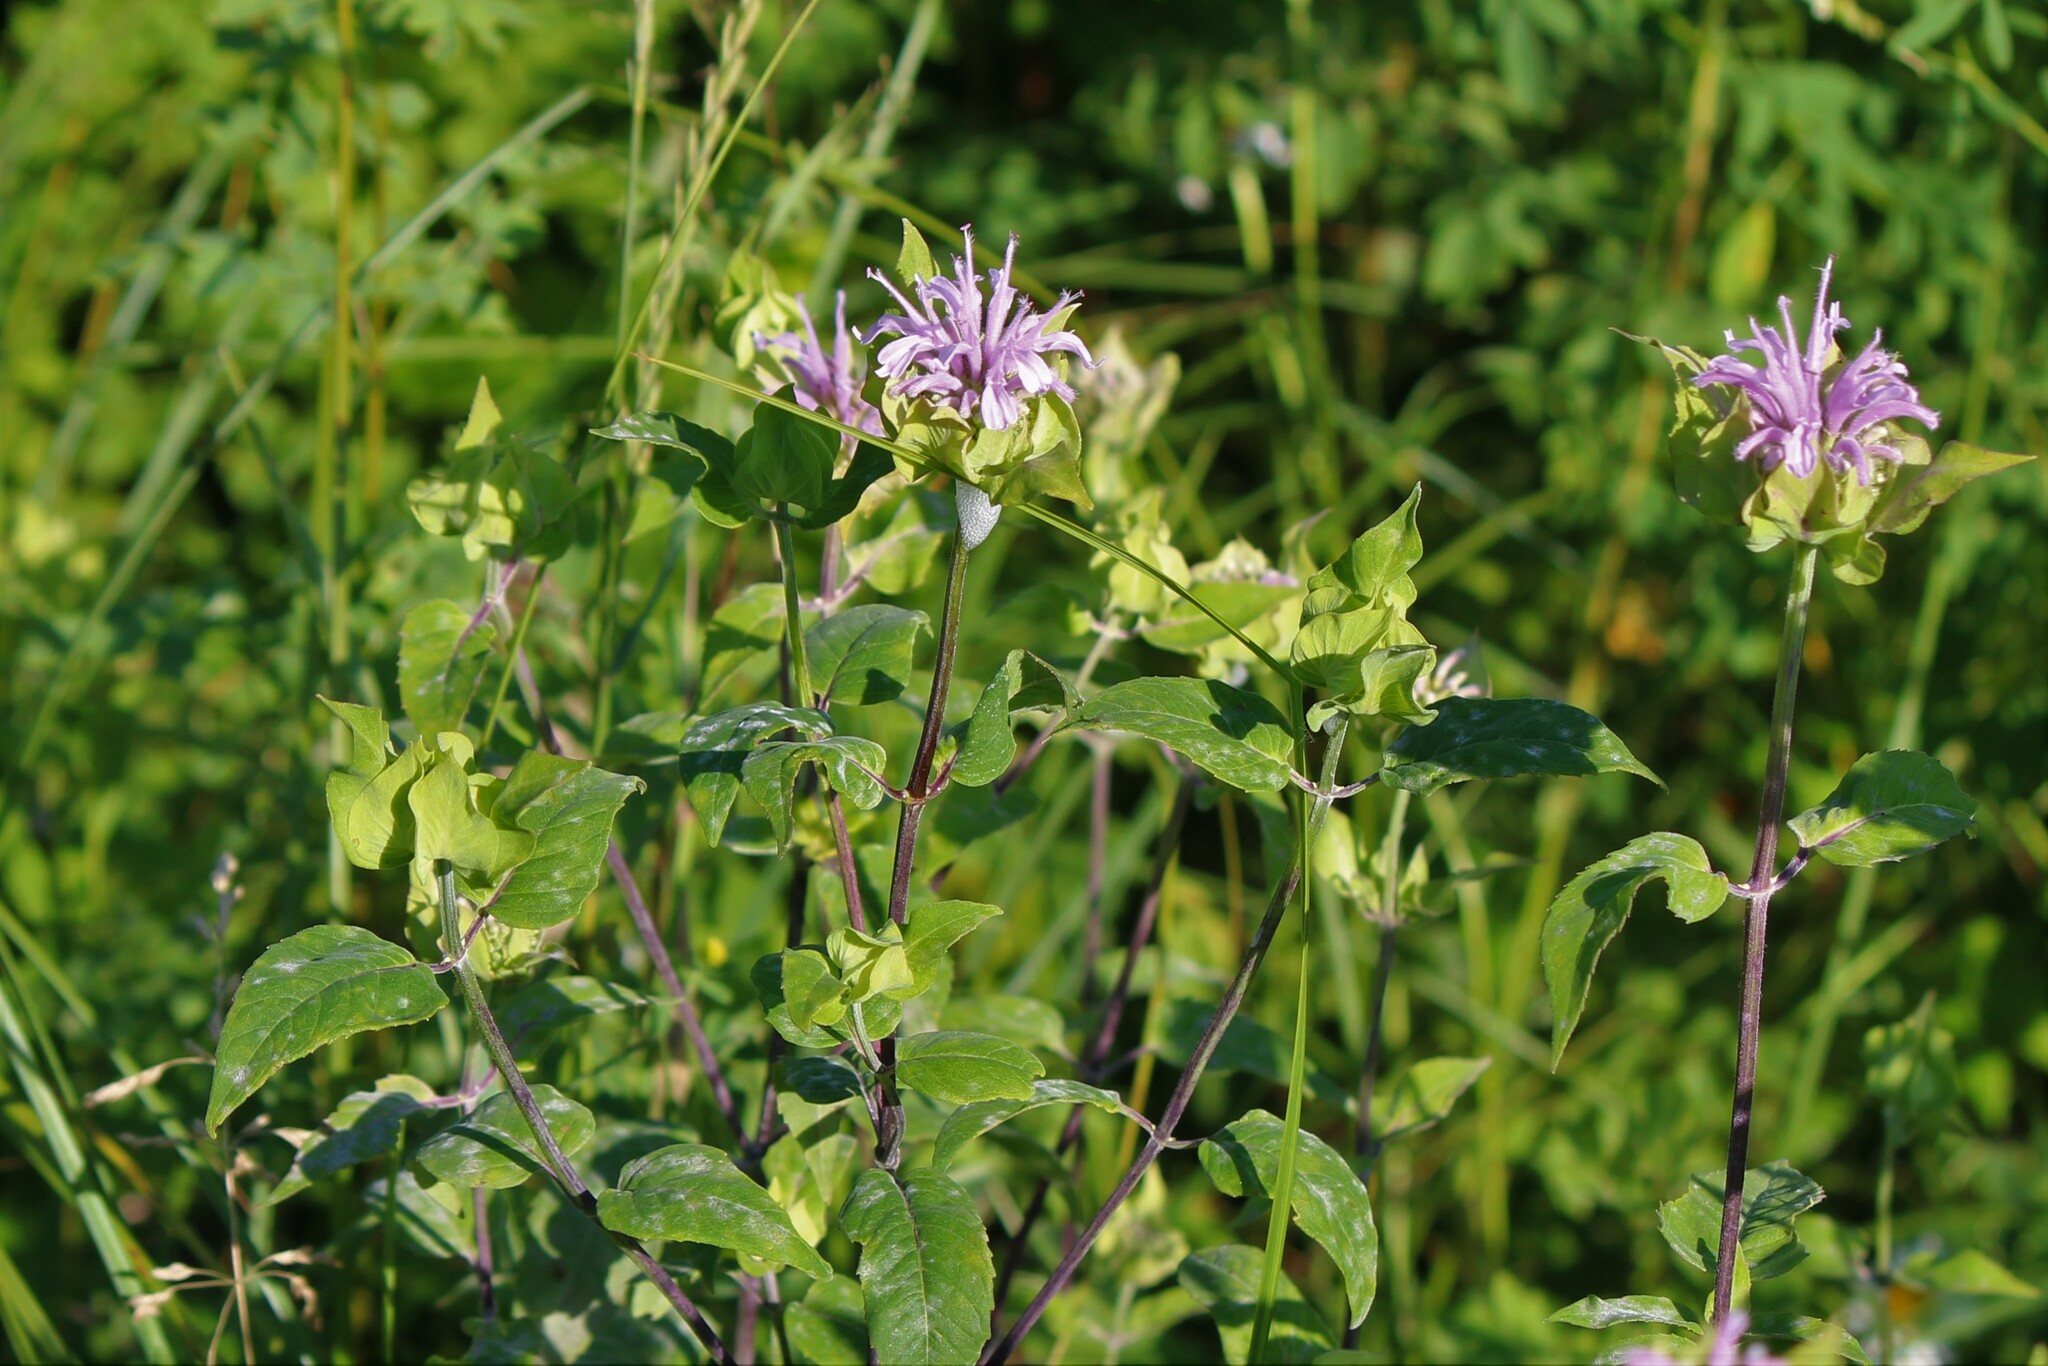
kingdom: Plantae
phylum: Tracheophyta
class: Magnoliopsida
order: Lamiales
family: Lamiaceae
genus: Monarda
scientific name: Monarda fistulosa
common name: Purple beebalm
